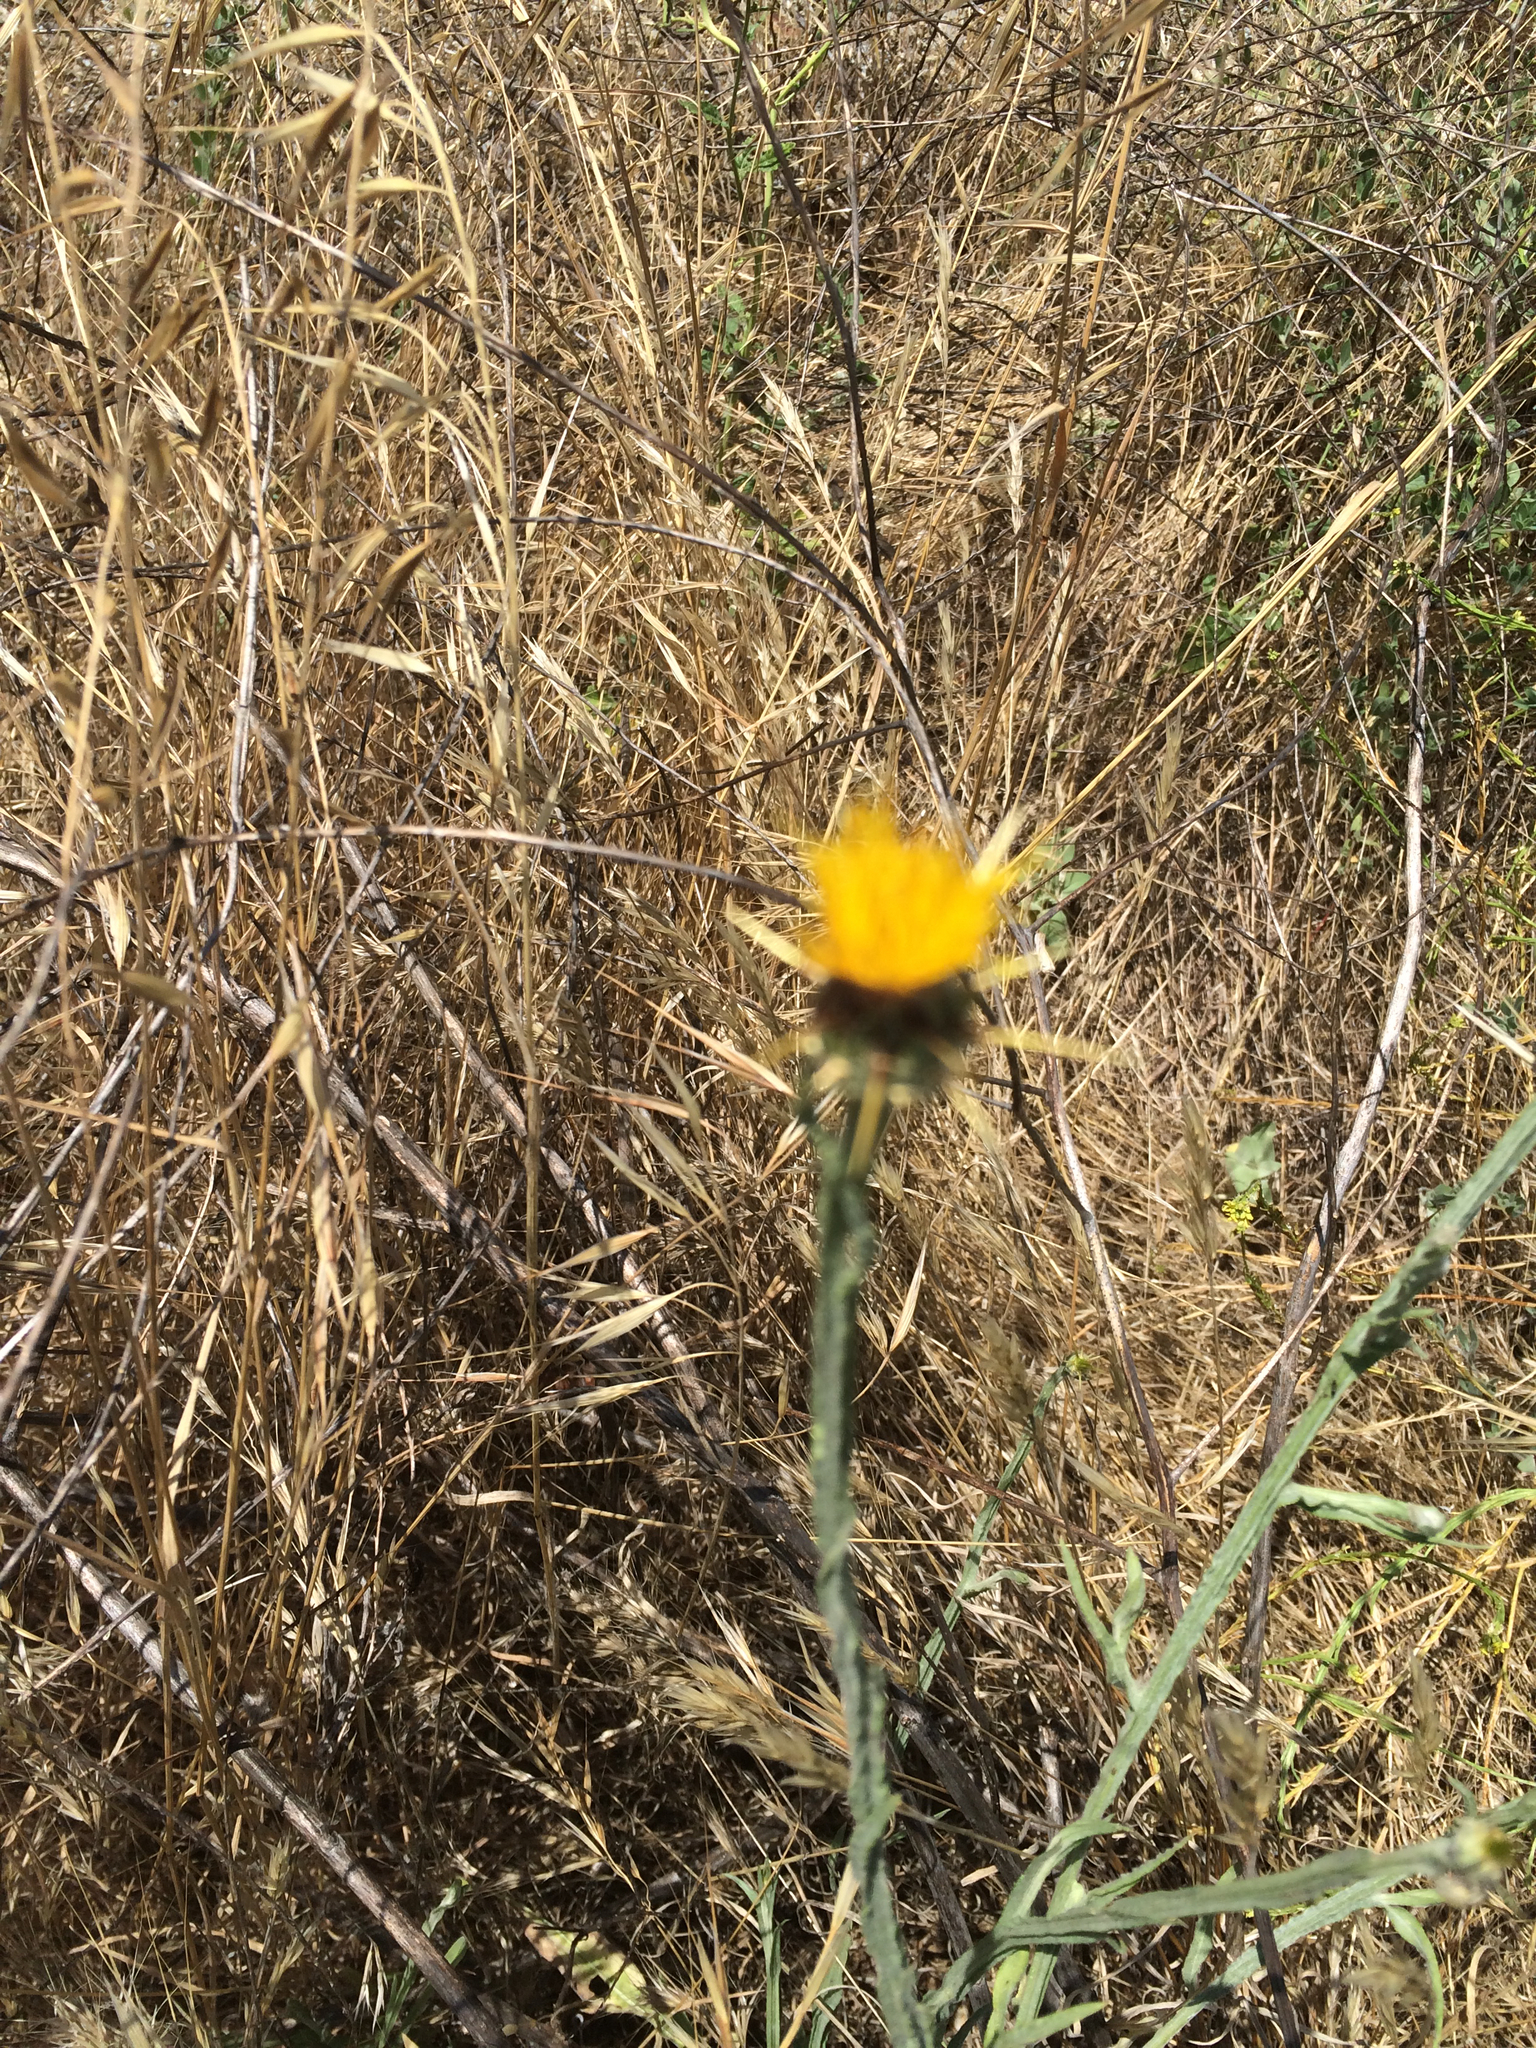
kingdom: Plantae
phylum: Tracheophyta
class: Magnoliopsida
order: Asterales
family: Asteraceae
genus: Centaurea
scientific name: Centaurea solstitialis
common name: Yellow star-thistle
